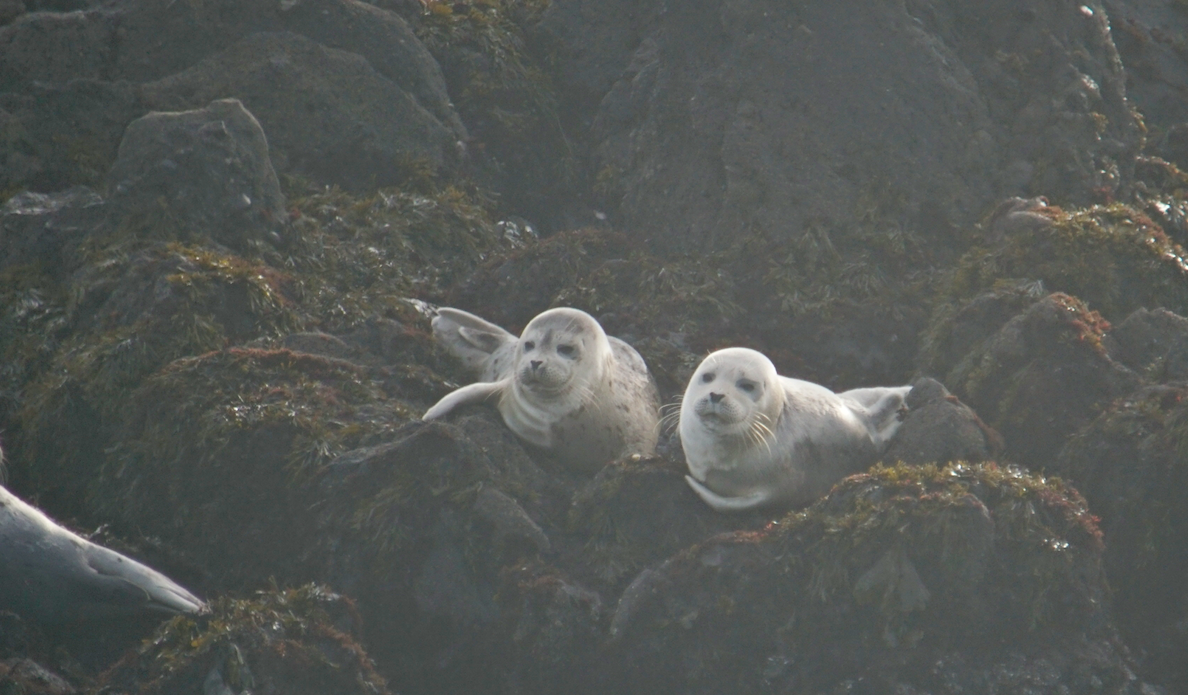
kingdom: Animalia
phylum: Chordata
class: Mammalia
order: Carnivora
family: Phocidae
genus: Phoca
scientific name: Phoca vitulina
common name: Harbor seal
